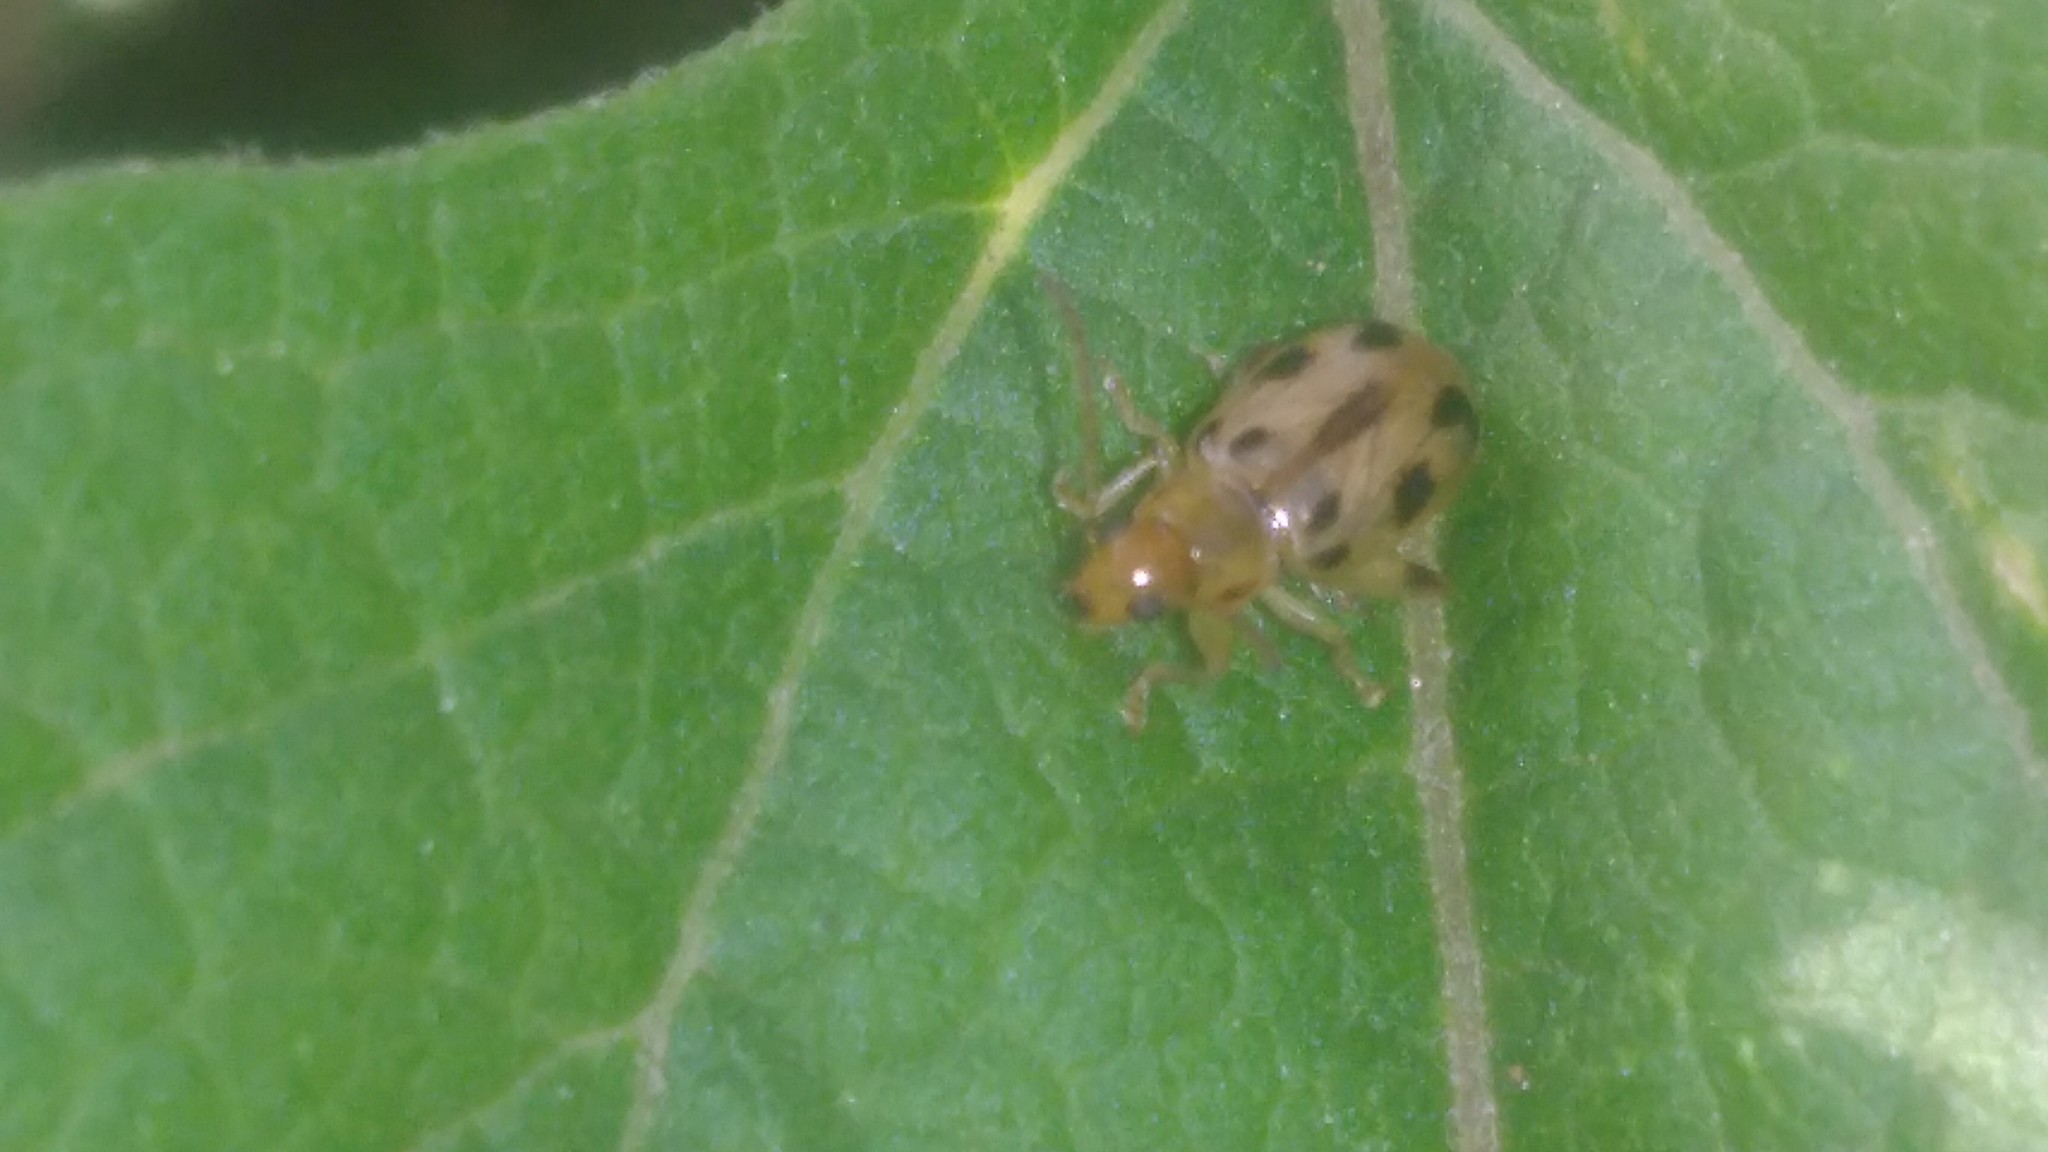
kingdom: Animalia
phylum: Arthropoda
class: Insecta
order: Coleoptera
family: Chrysomelidae
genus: Systena
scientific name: Systena
